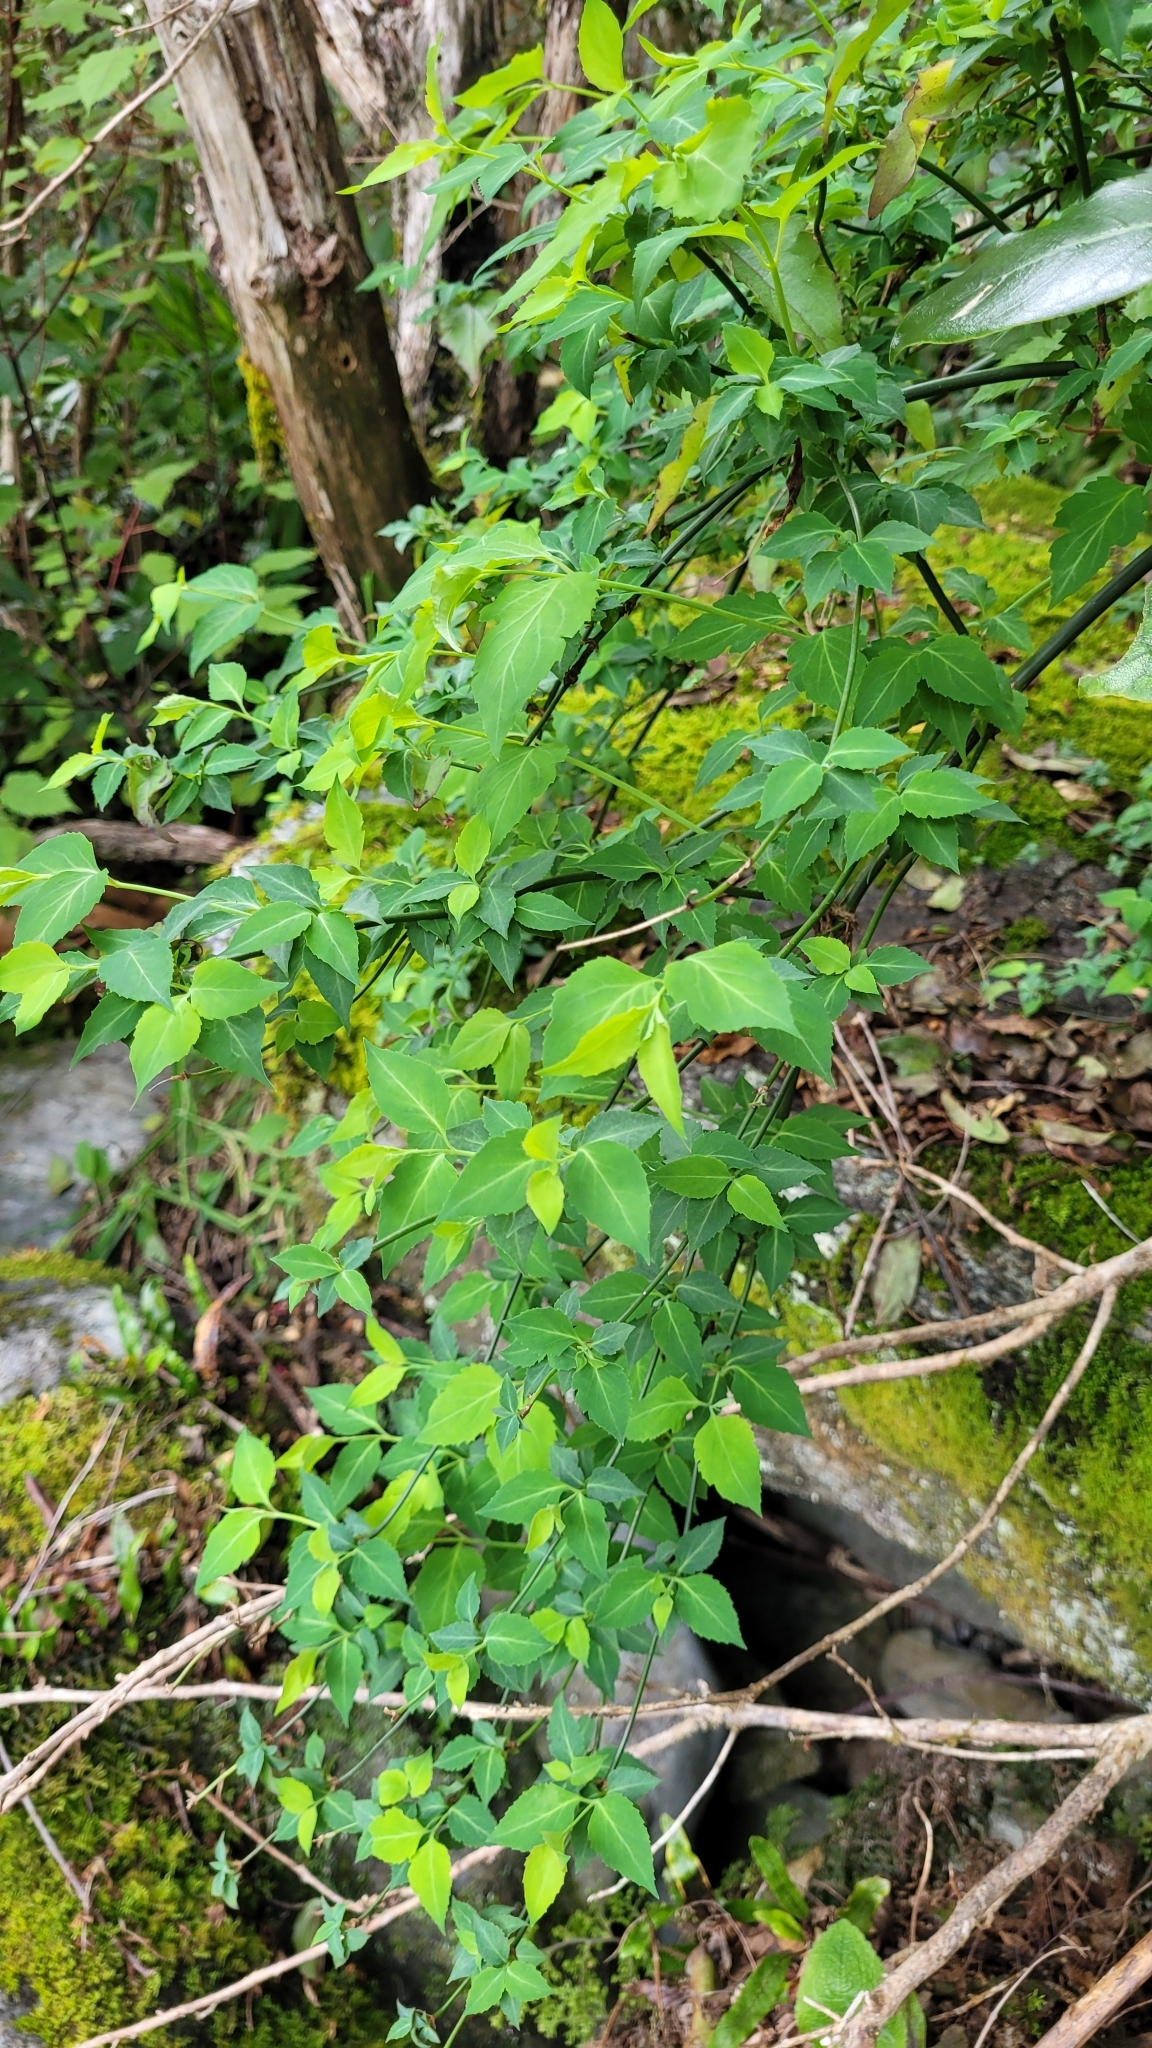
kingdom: Plantae
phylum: Tracheophyta
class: Magnoliopsida
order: Dipsacales
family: Caprifoliaceae
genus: Leycesteria
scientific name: Leycesteria formosa
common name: Himalayan honeysuckle
